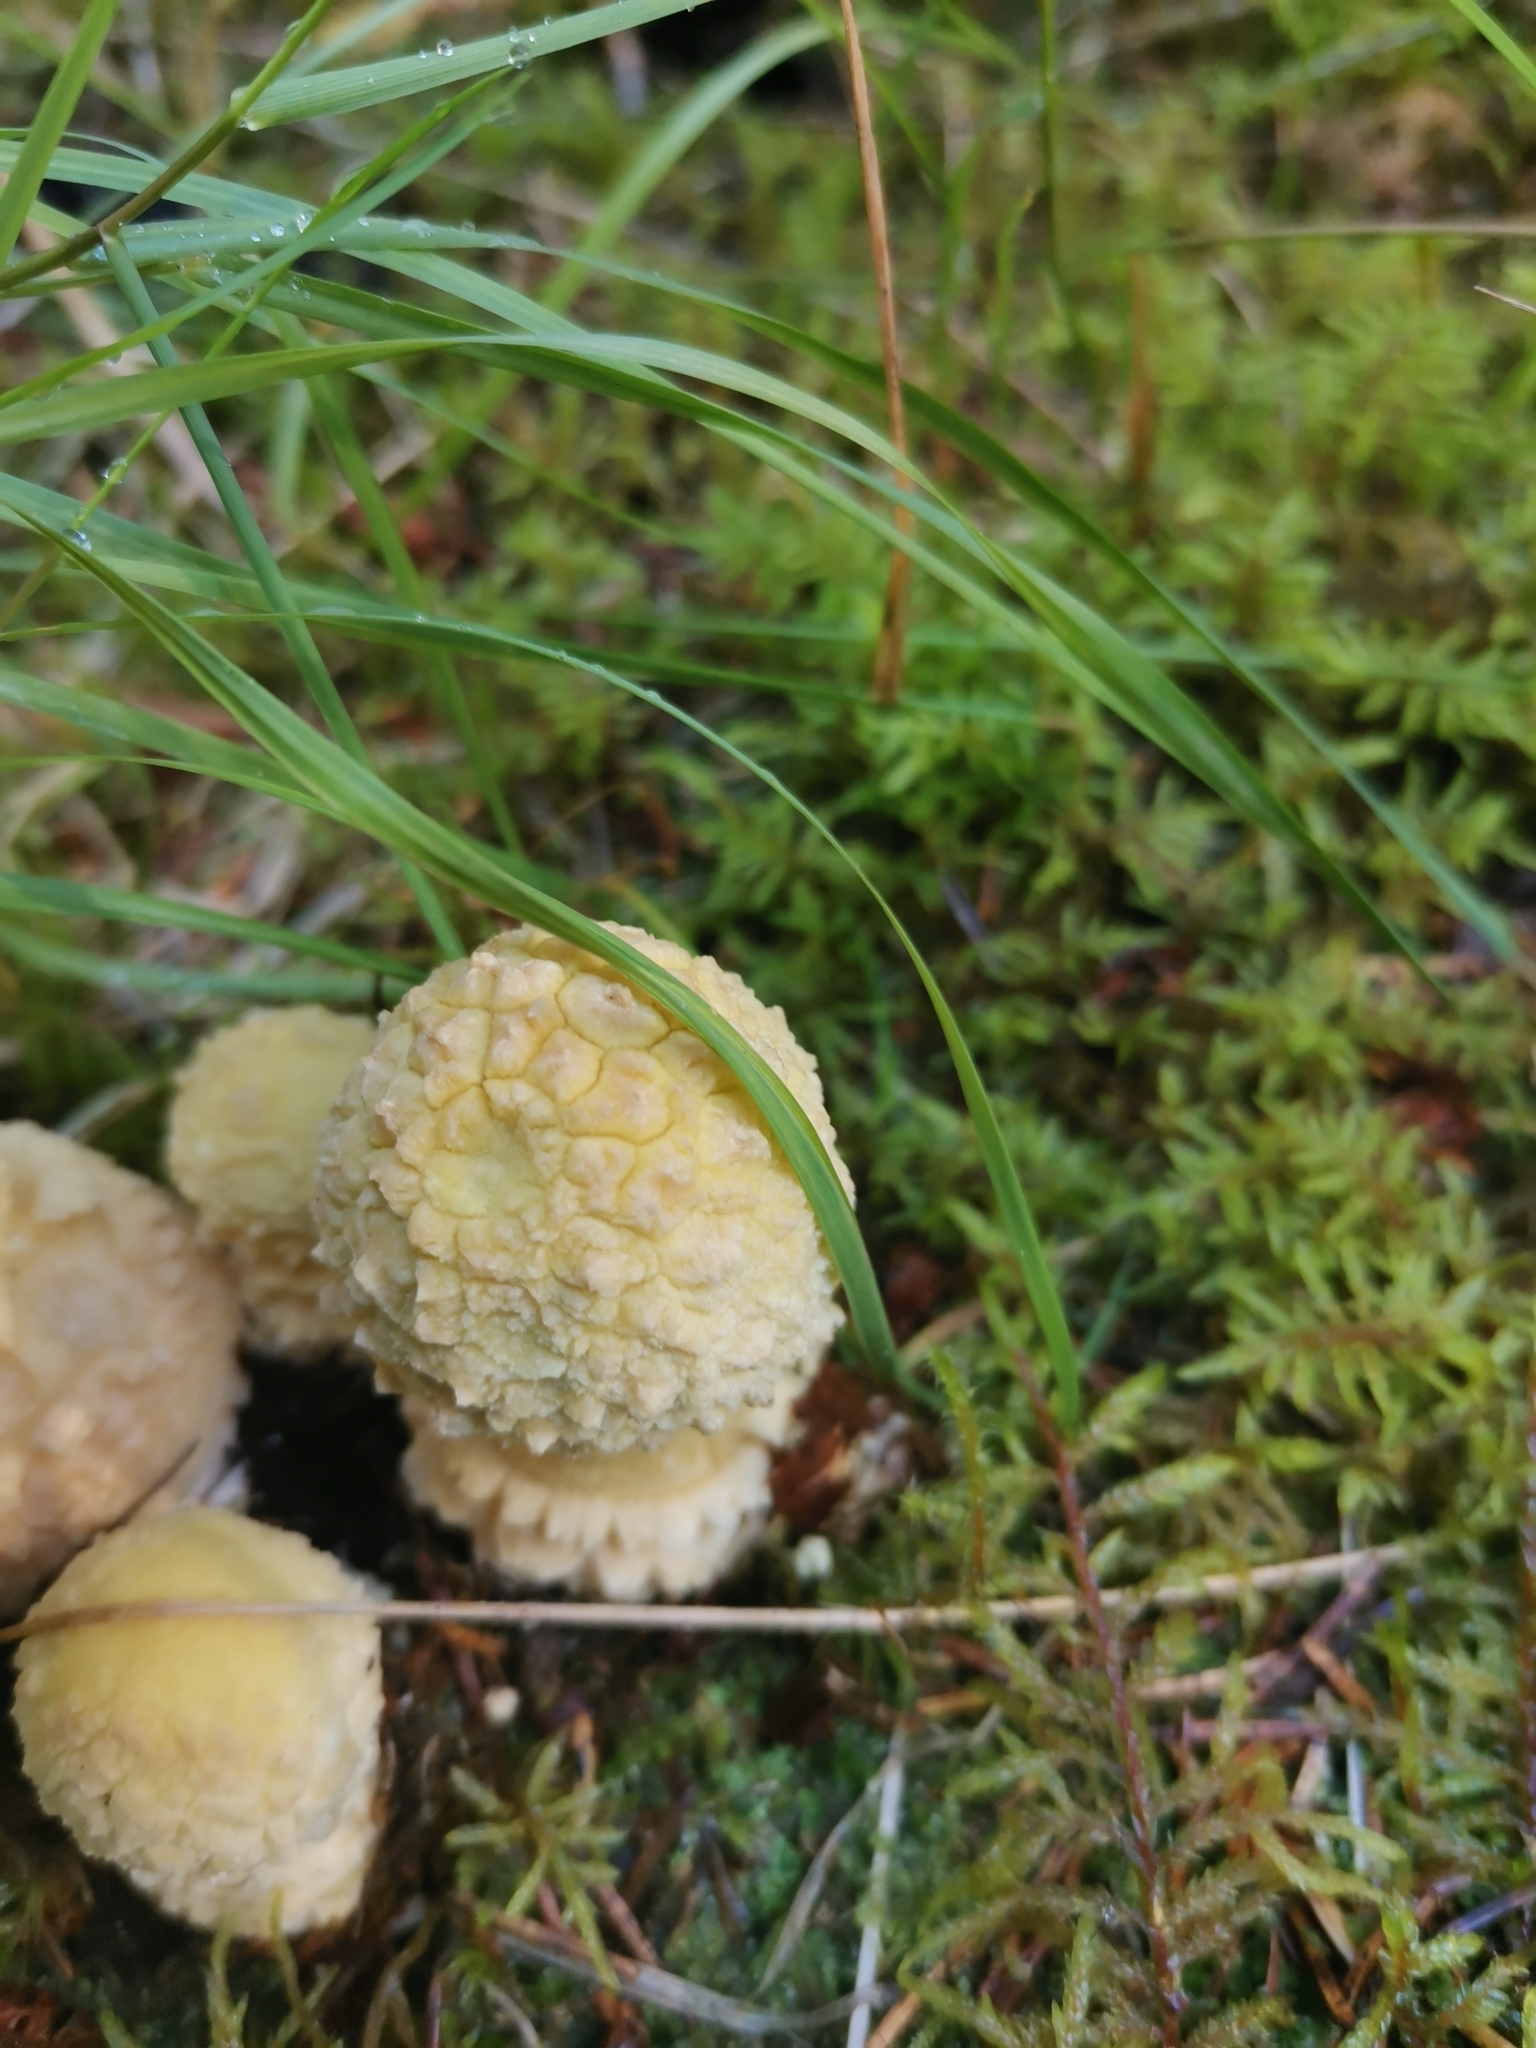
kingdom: Fungi
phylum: Basidiomycota
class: Agaricomycetes
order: Agaricales
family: Amanitaceae
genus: Amanita
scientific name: Amanita regalis
